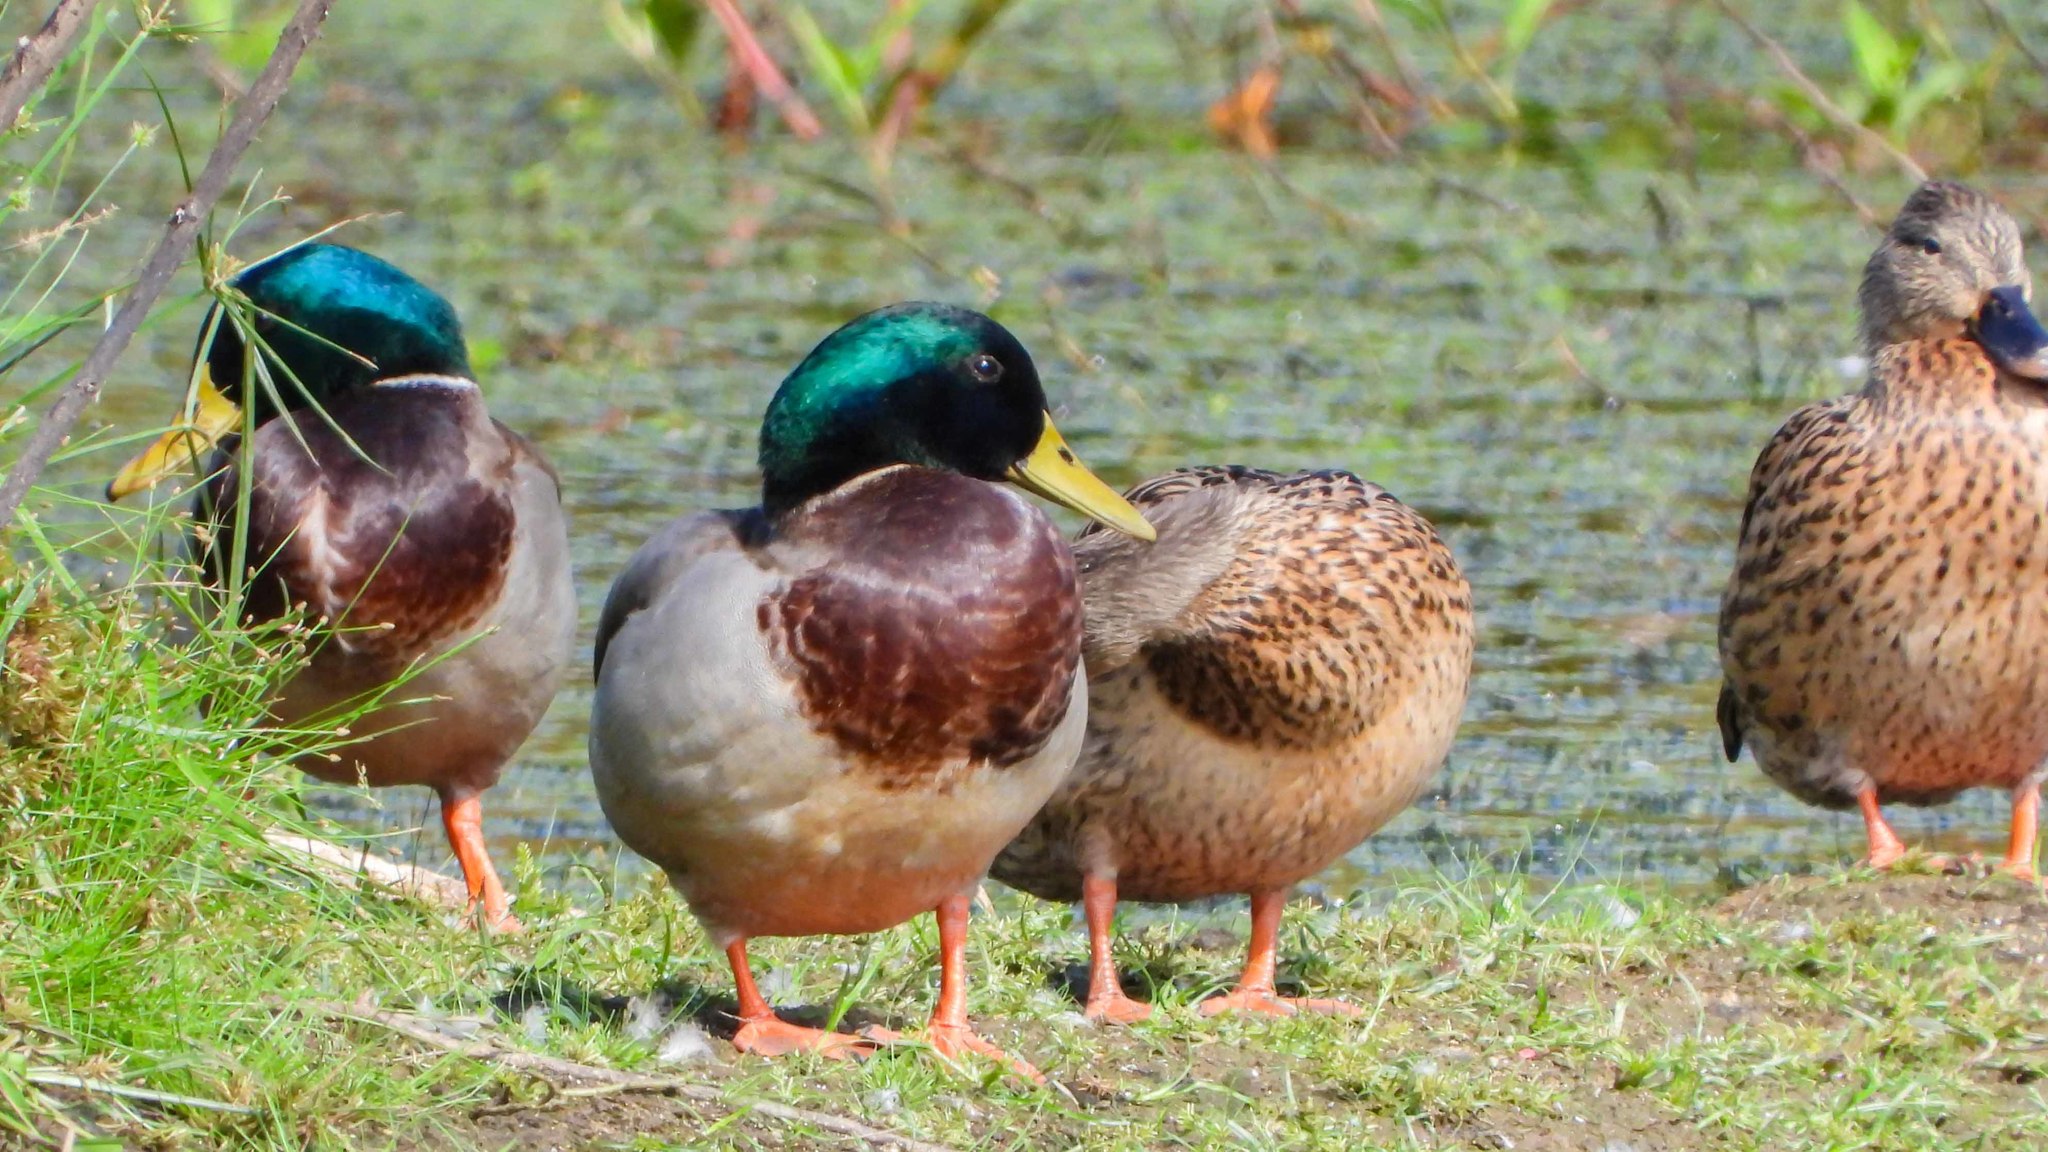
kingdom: Animalia
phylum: Chordata
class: Aves
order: Anseriformes
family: Anatidae
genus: Anas
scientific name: Anas platyrhynchos
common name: Mallard
